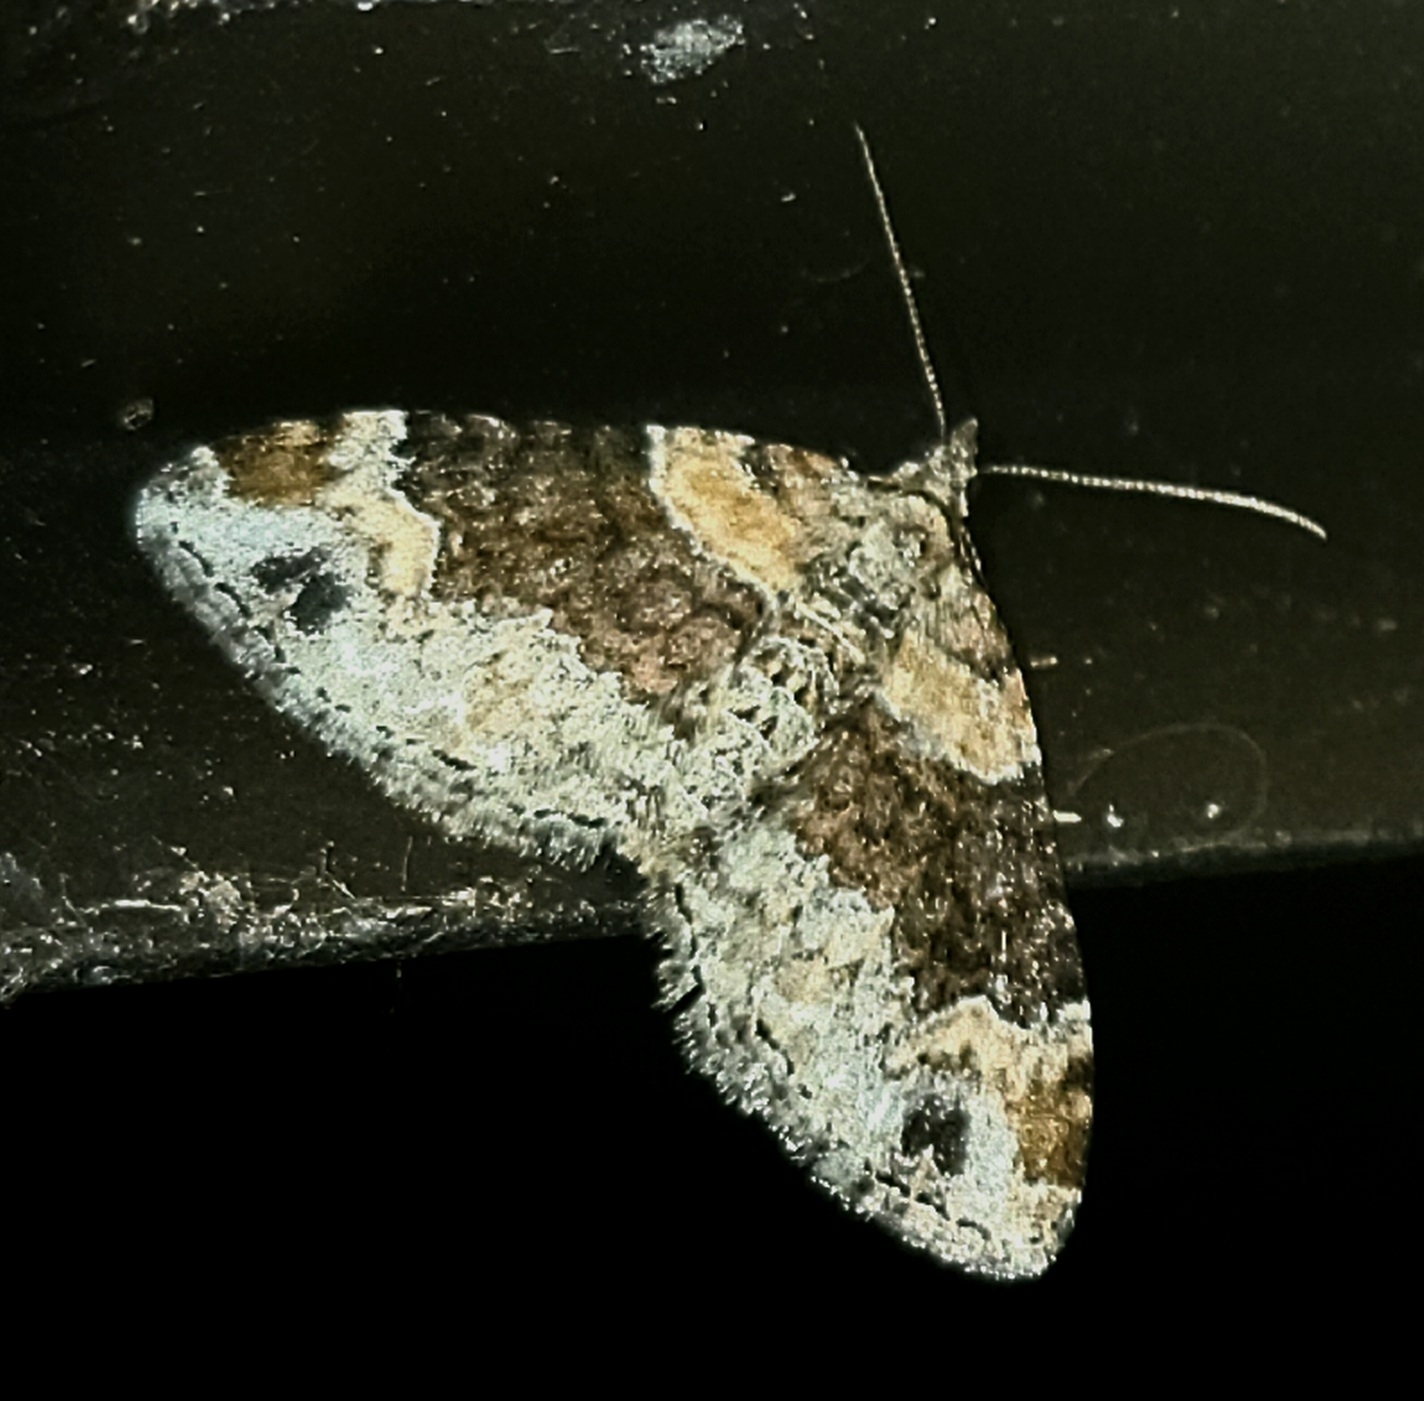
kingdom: Animalia
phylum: Arthropoda
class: Insecta
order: Lepidoptera
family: Geometridae
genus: Xanthorhoe
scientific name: Xanthorhoe ferrugata
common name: Dark-barred twin-spot carpet
